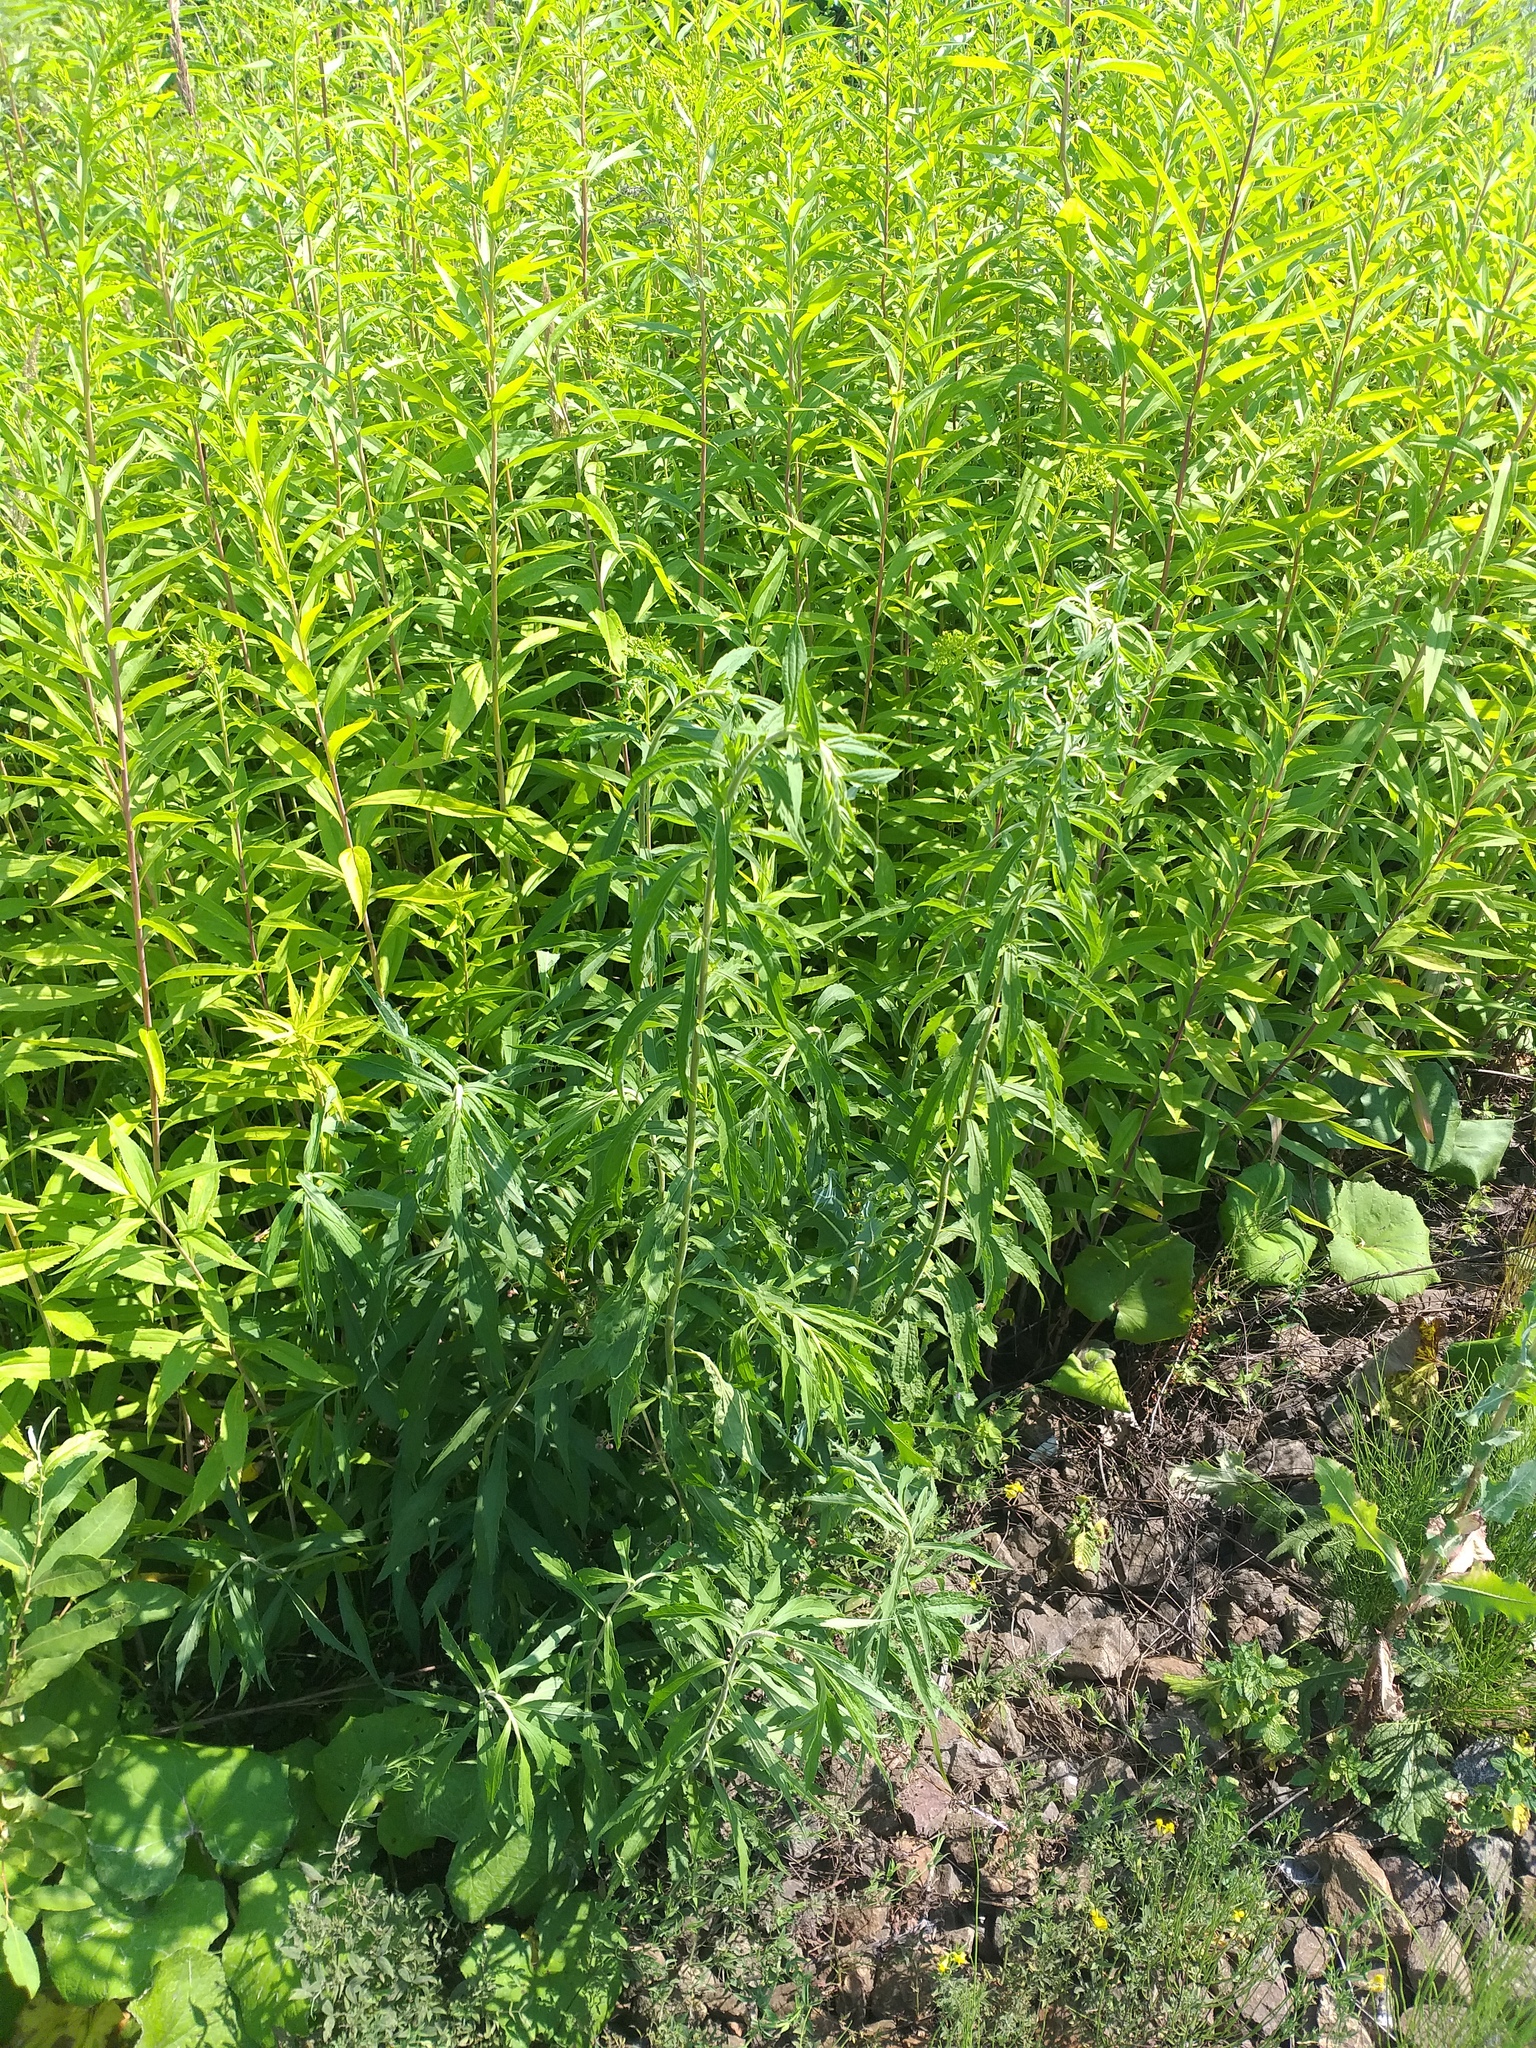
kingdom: Plantae
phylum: Tracheophyta
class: Magnoliopsida
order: Asterales
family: Asteraceae
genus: Solidago
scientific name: Solidago canadensis
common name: Canada goldenrod
